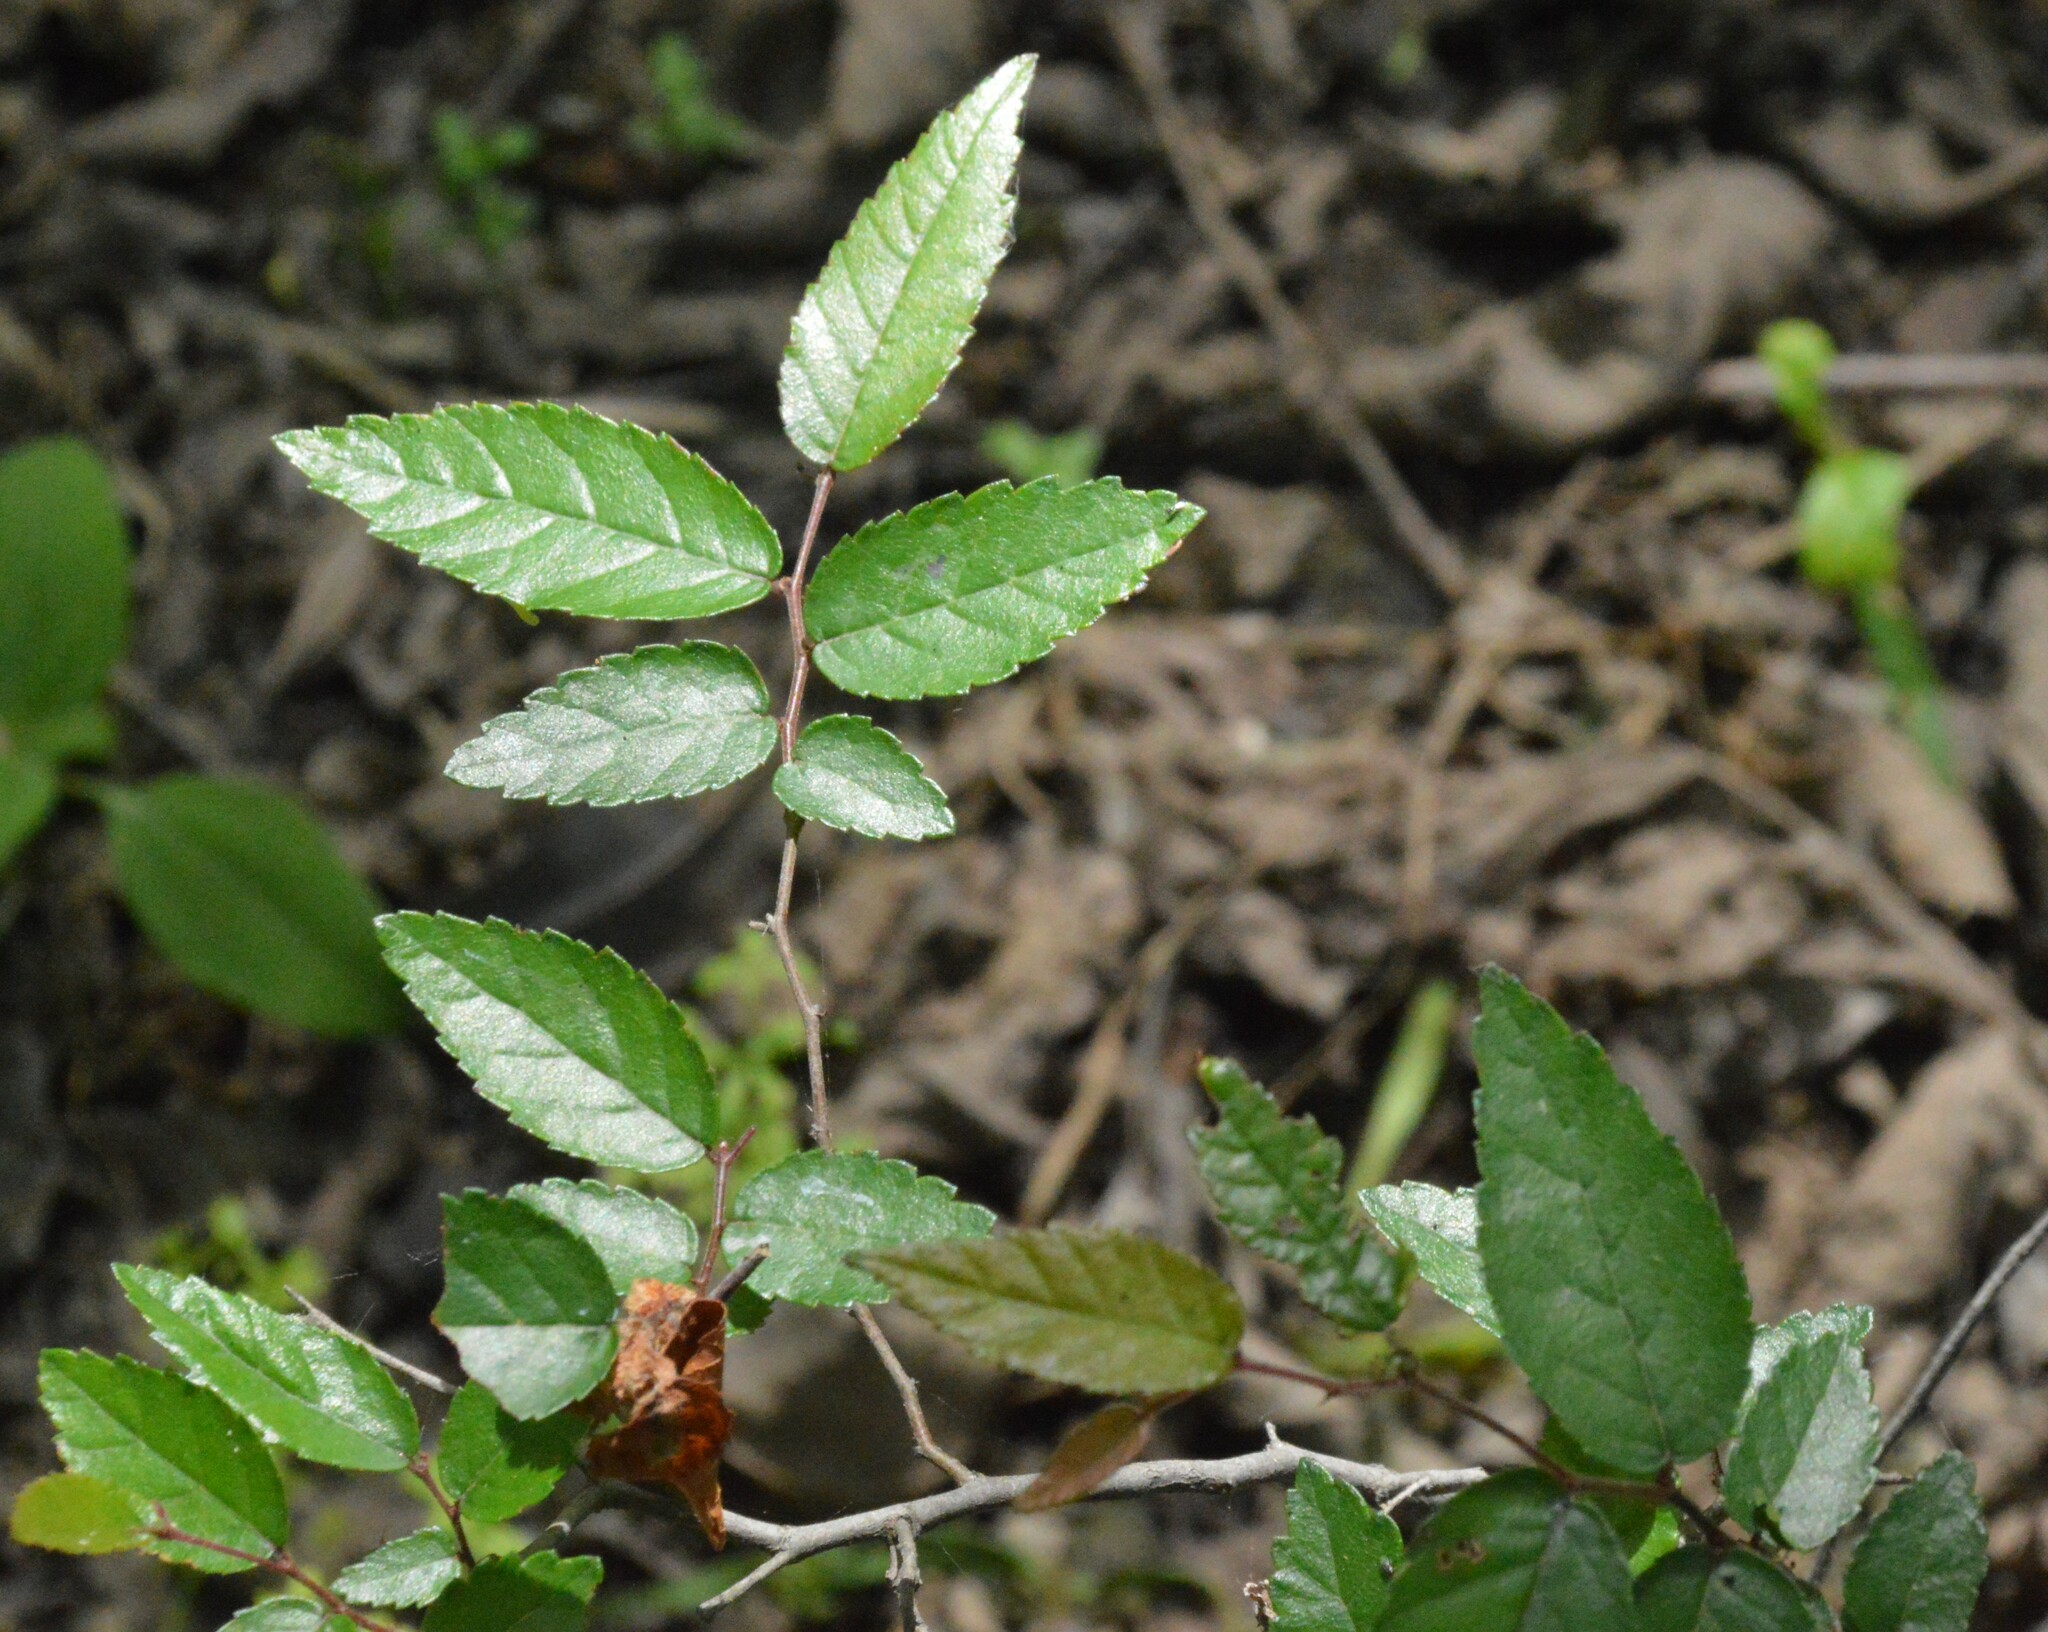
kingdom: Plantae
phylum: Tracheophyta
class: Magnoliopsida
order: Rosales
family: Ulmaceae
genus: Planera
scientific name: Planera aquatica
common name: Water-elm
